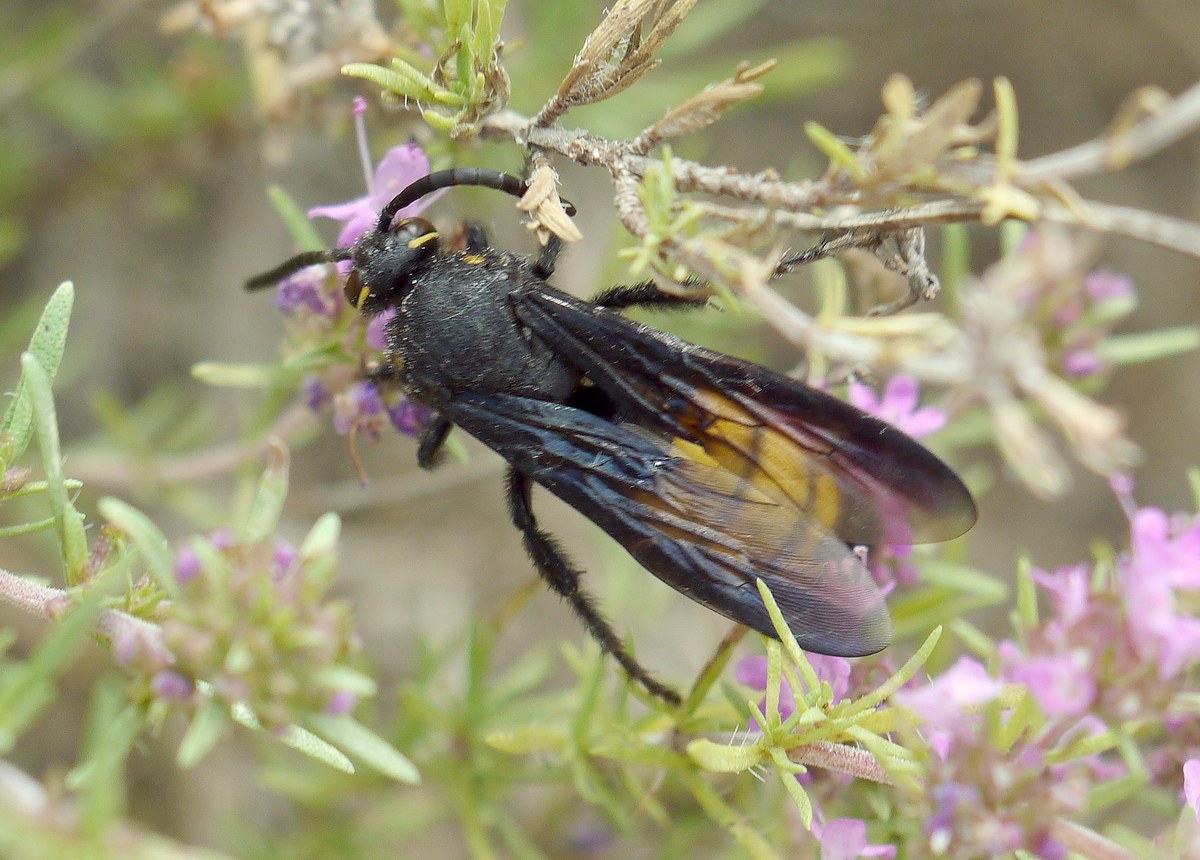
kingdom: Animalia
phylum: Arthropoda
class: Insecta
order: Hymenoptera
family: Vespidae
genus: Vespa
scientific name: Vespa galbula
